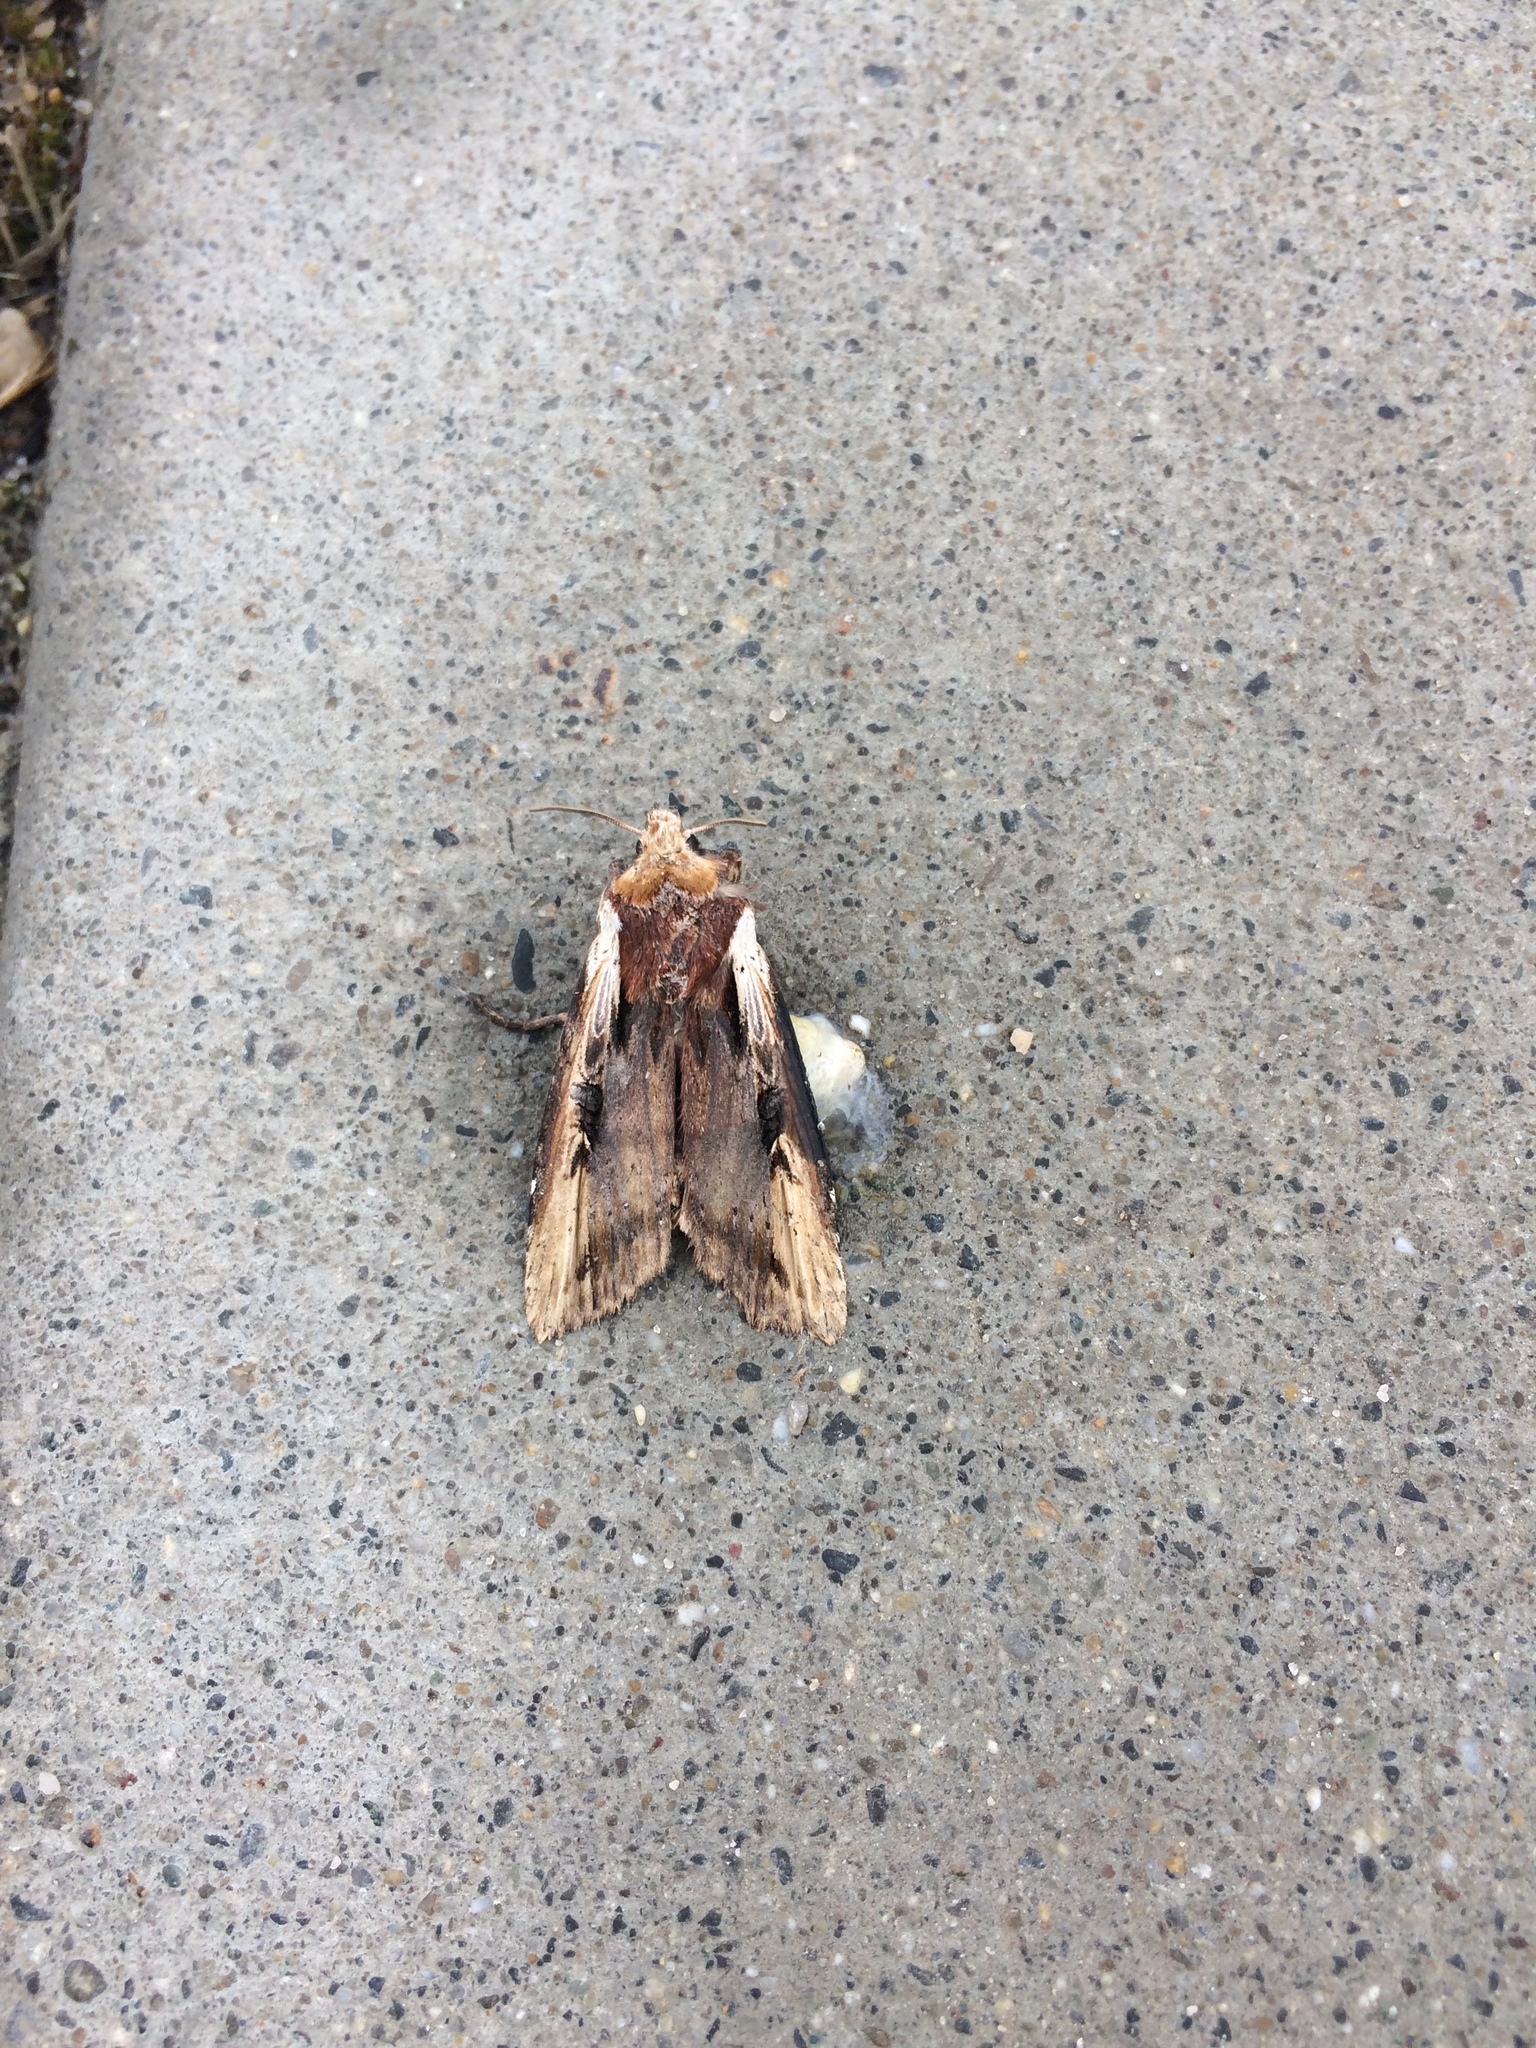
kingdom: Animalia
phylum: Arthropoda
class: Insecta
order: Lepidoptera
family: Noctuidae
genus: Xylena
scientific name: Xylena curvimacula
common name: Dot-and-dash swordgrass moth
